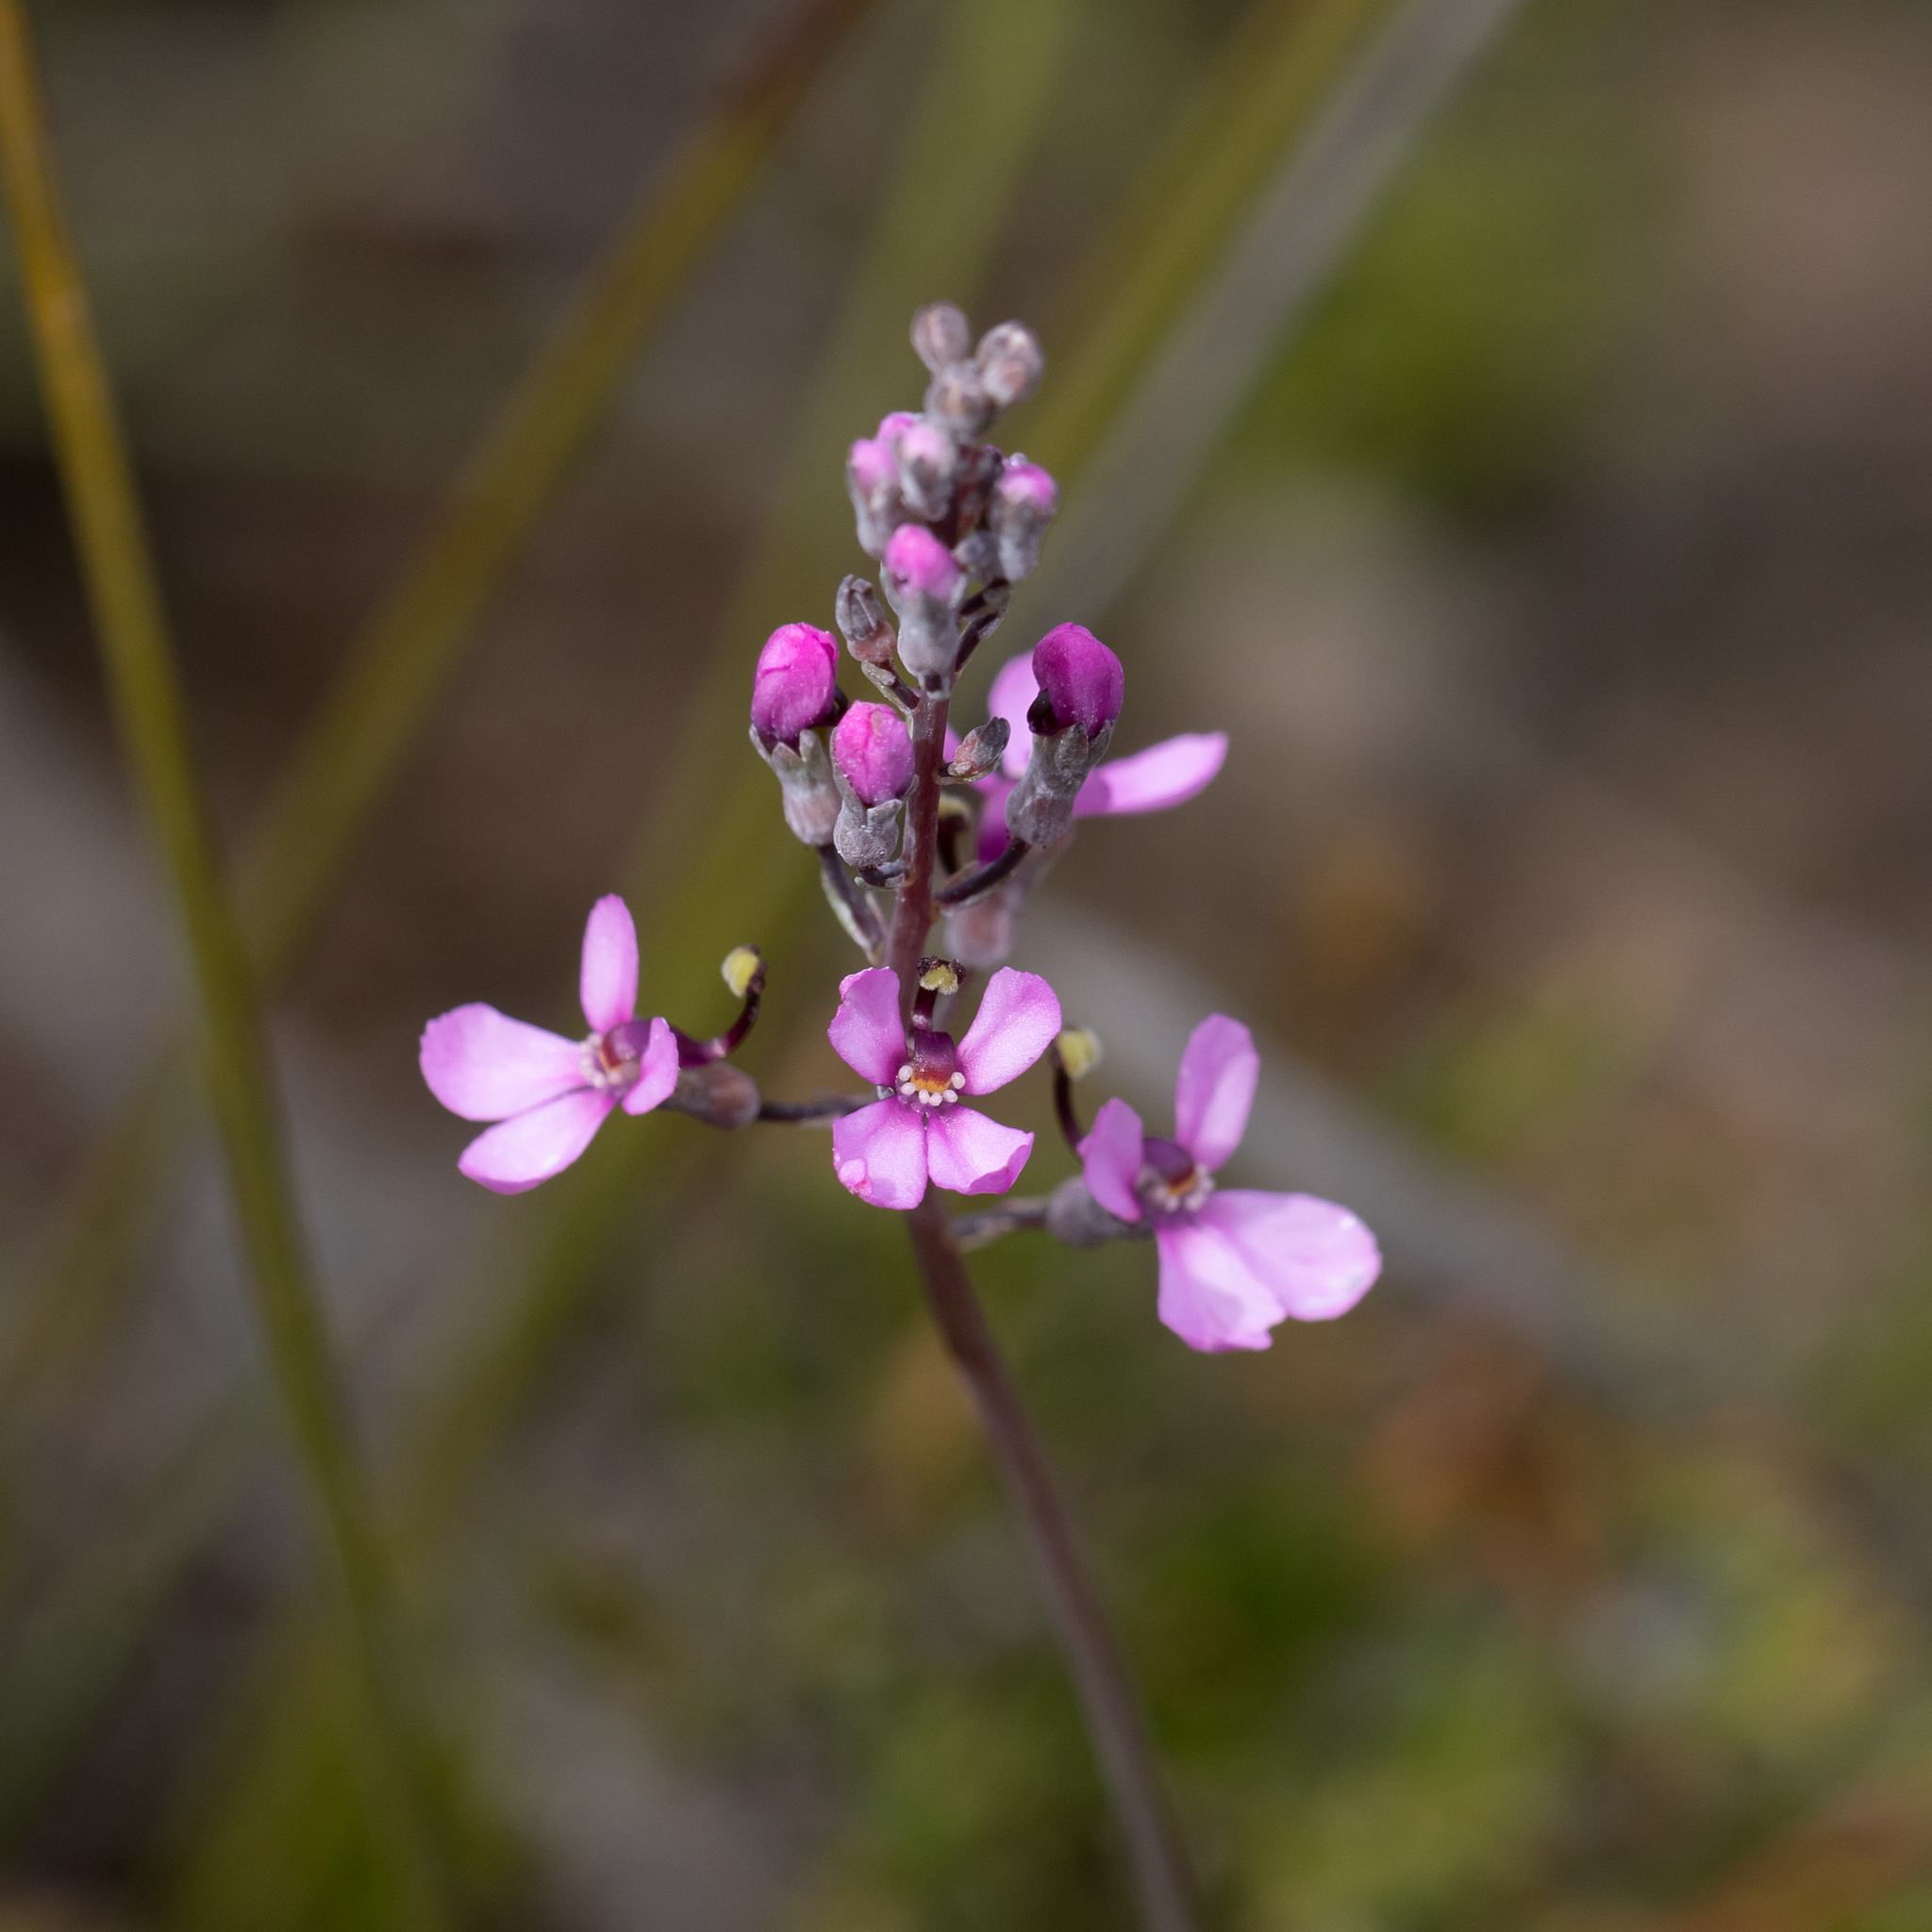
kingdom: Plantae
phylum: Tracheophyta
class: Magnoliopsida
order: Asterales
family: Stylidiaceae
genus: Stylidium
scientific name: Stylidium tenue
